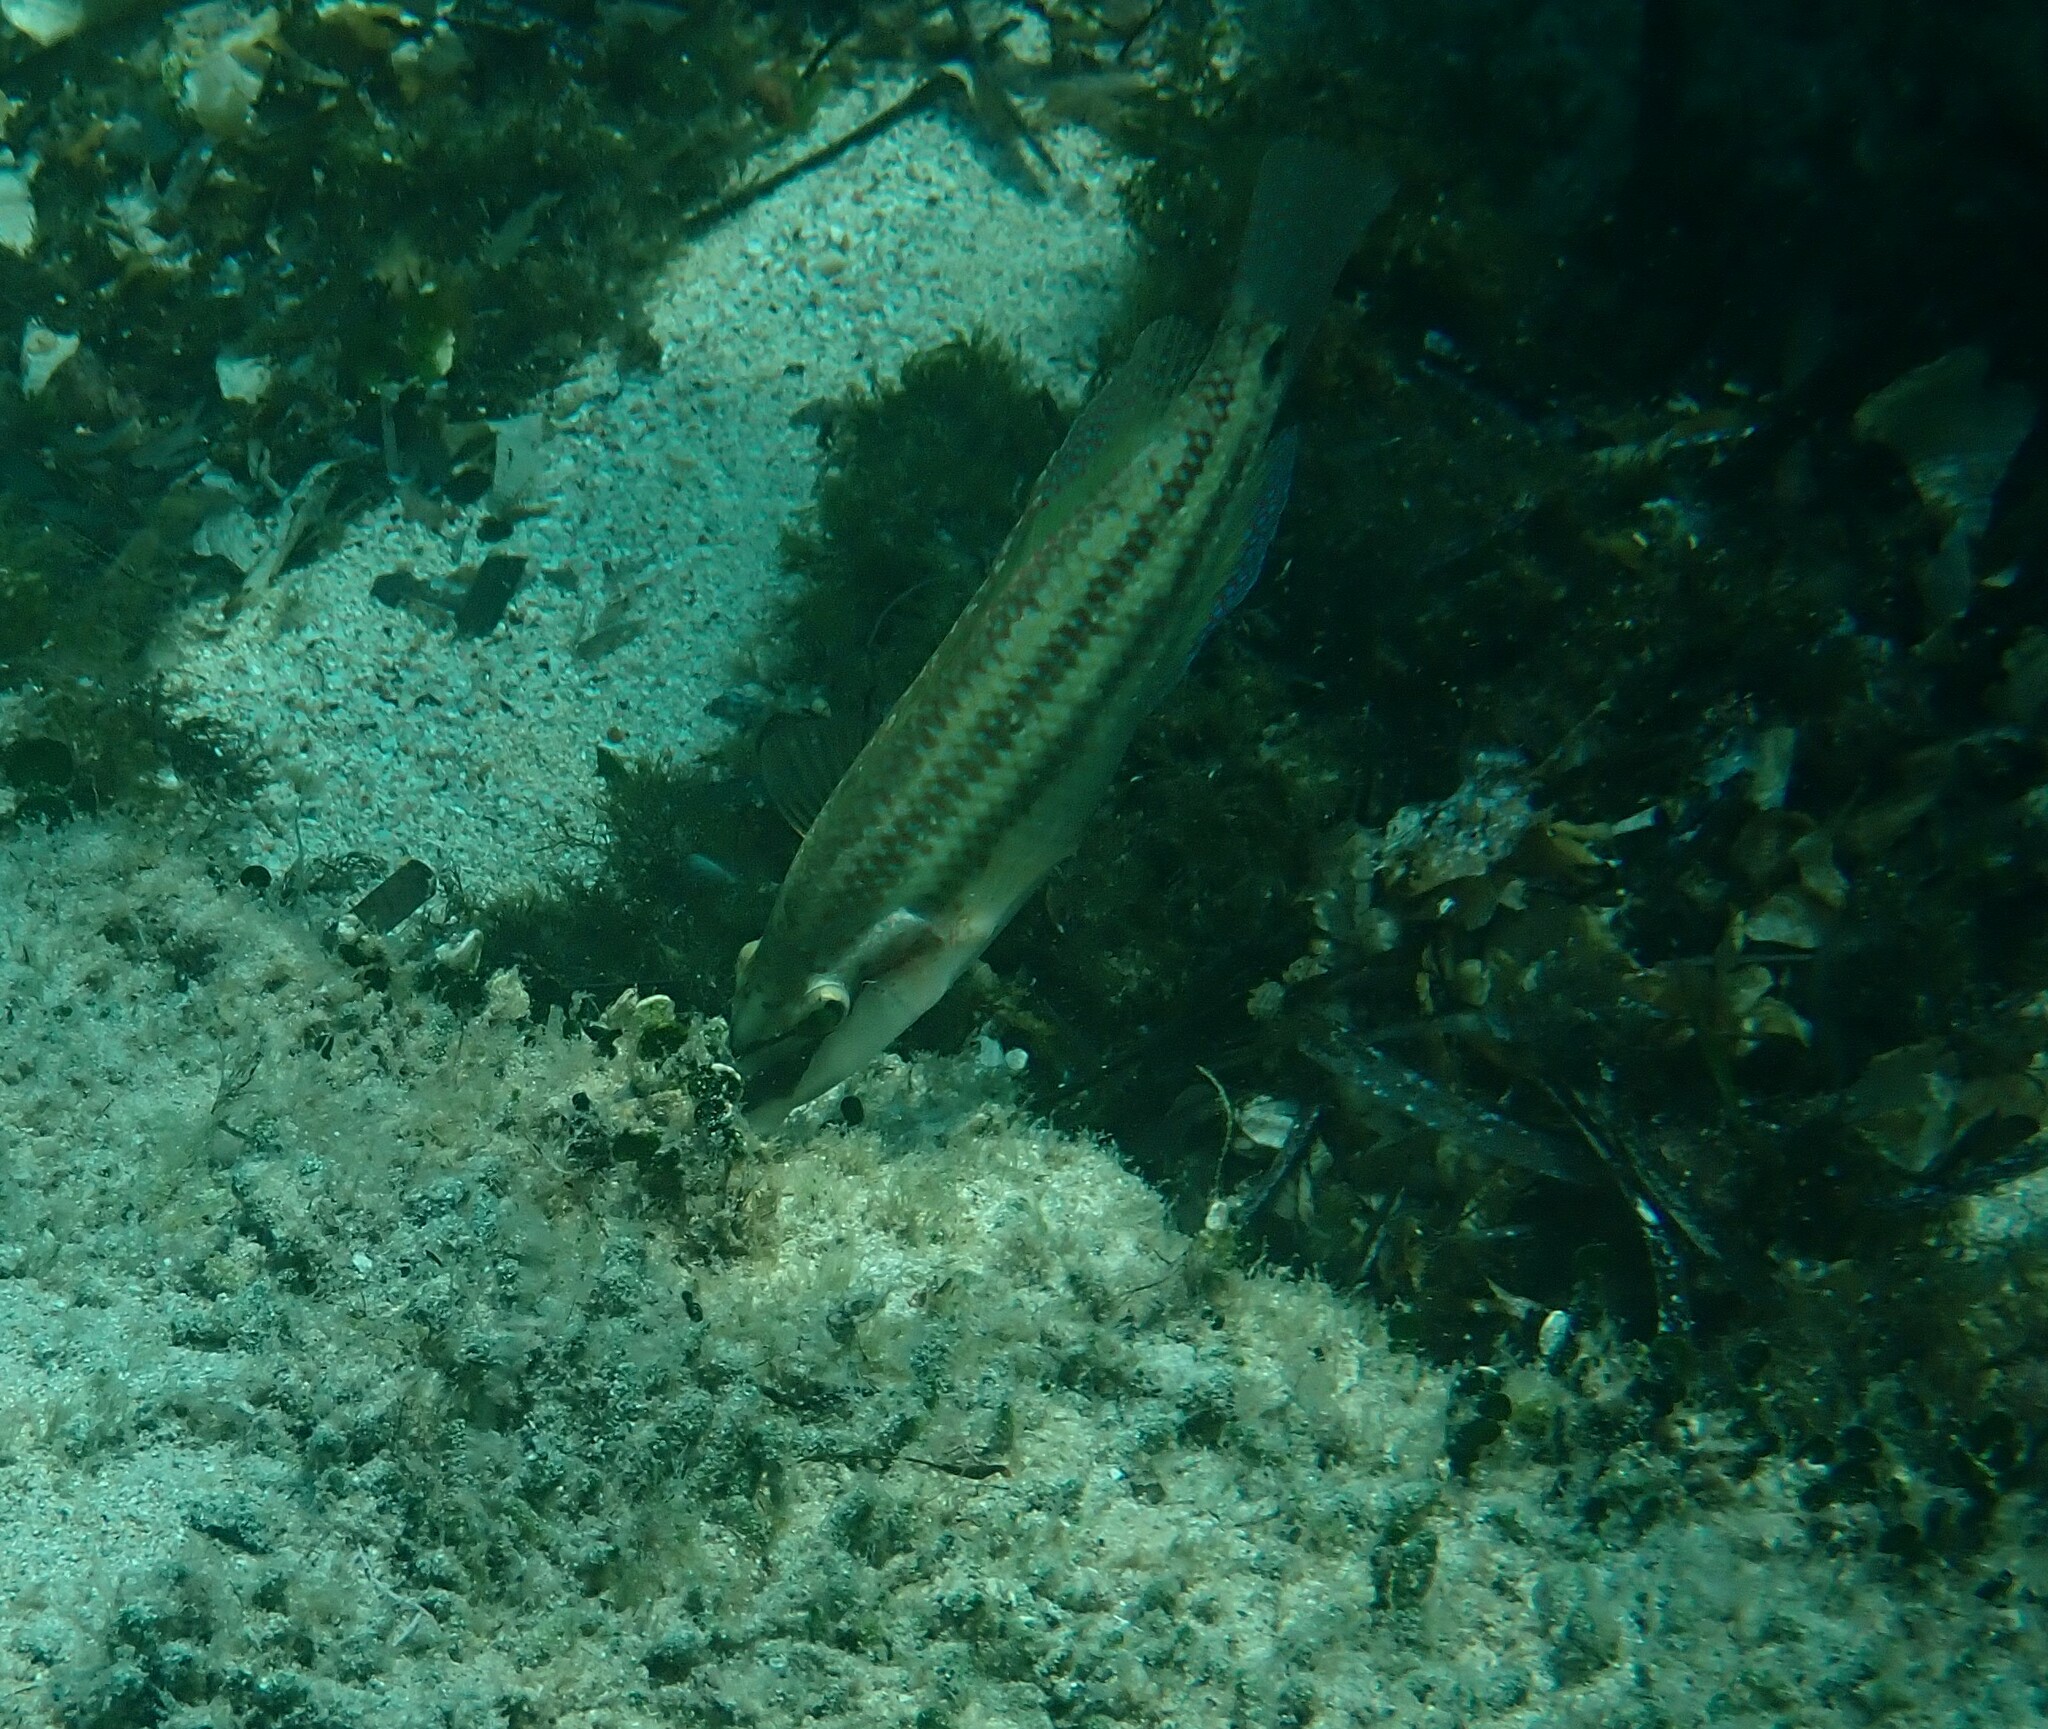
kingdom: Animalia
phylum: Chordata
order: Perciformes
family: Labridae
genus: Symphodus
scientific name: Symphodus tinca
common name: Peacock wrasse
